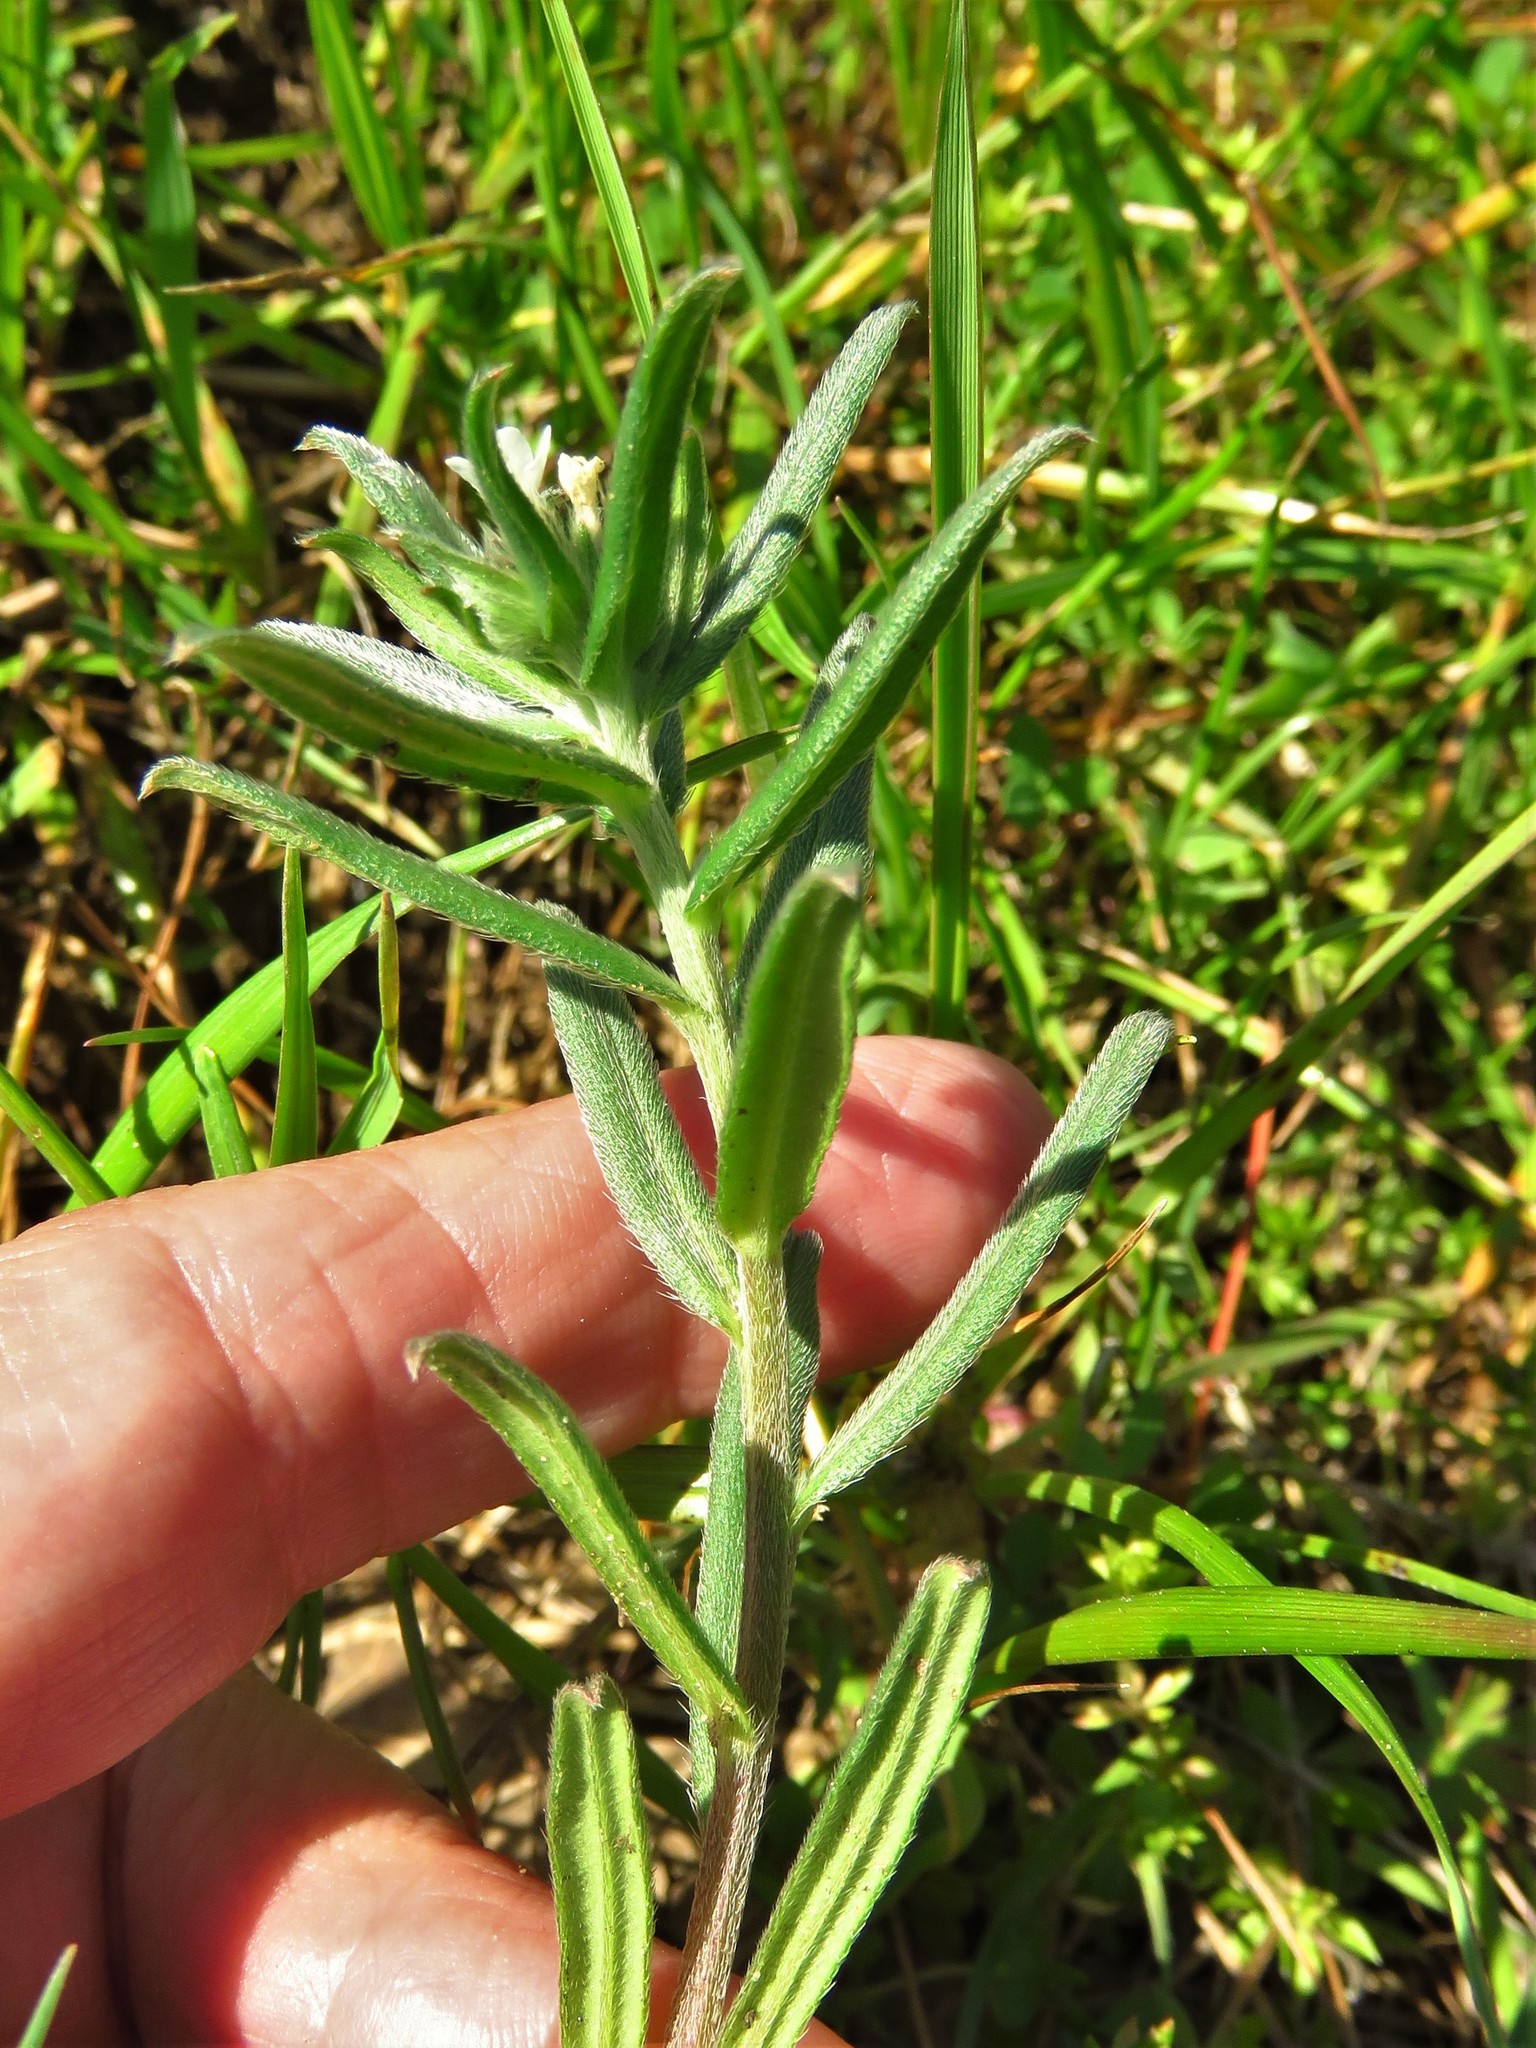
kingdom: Plantae
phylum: Tracheophyta
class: Magnoliopsida
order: Boraginales
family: Boraginaceae
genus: Buglossoides
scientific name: Buglossoides arvensis
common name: Corn gromwell
